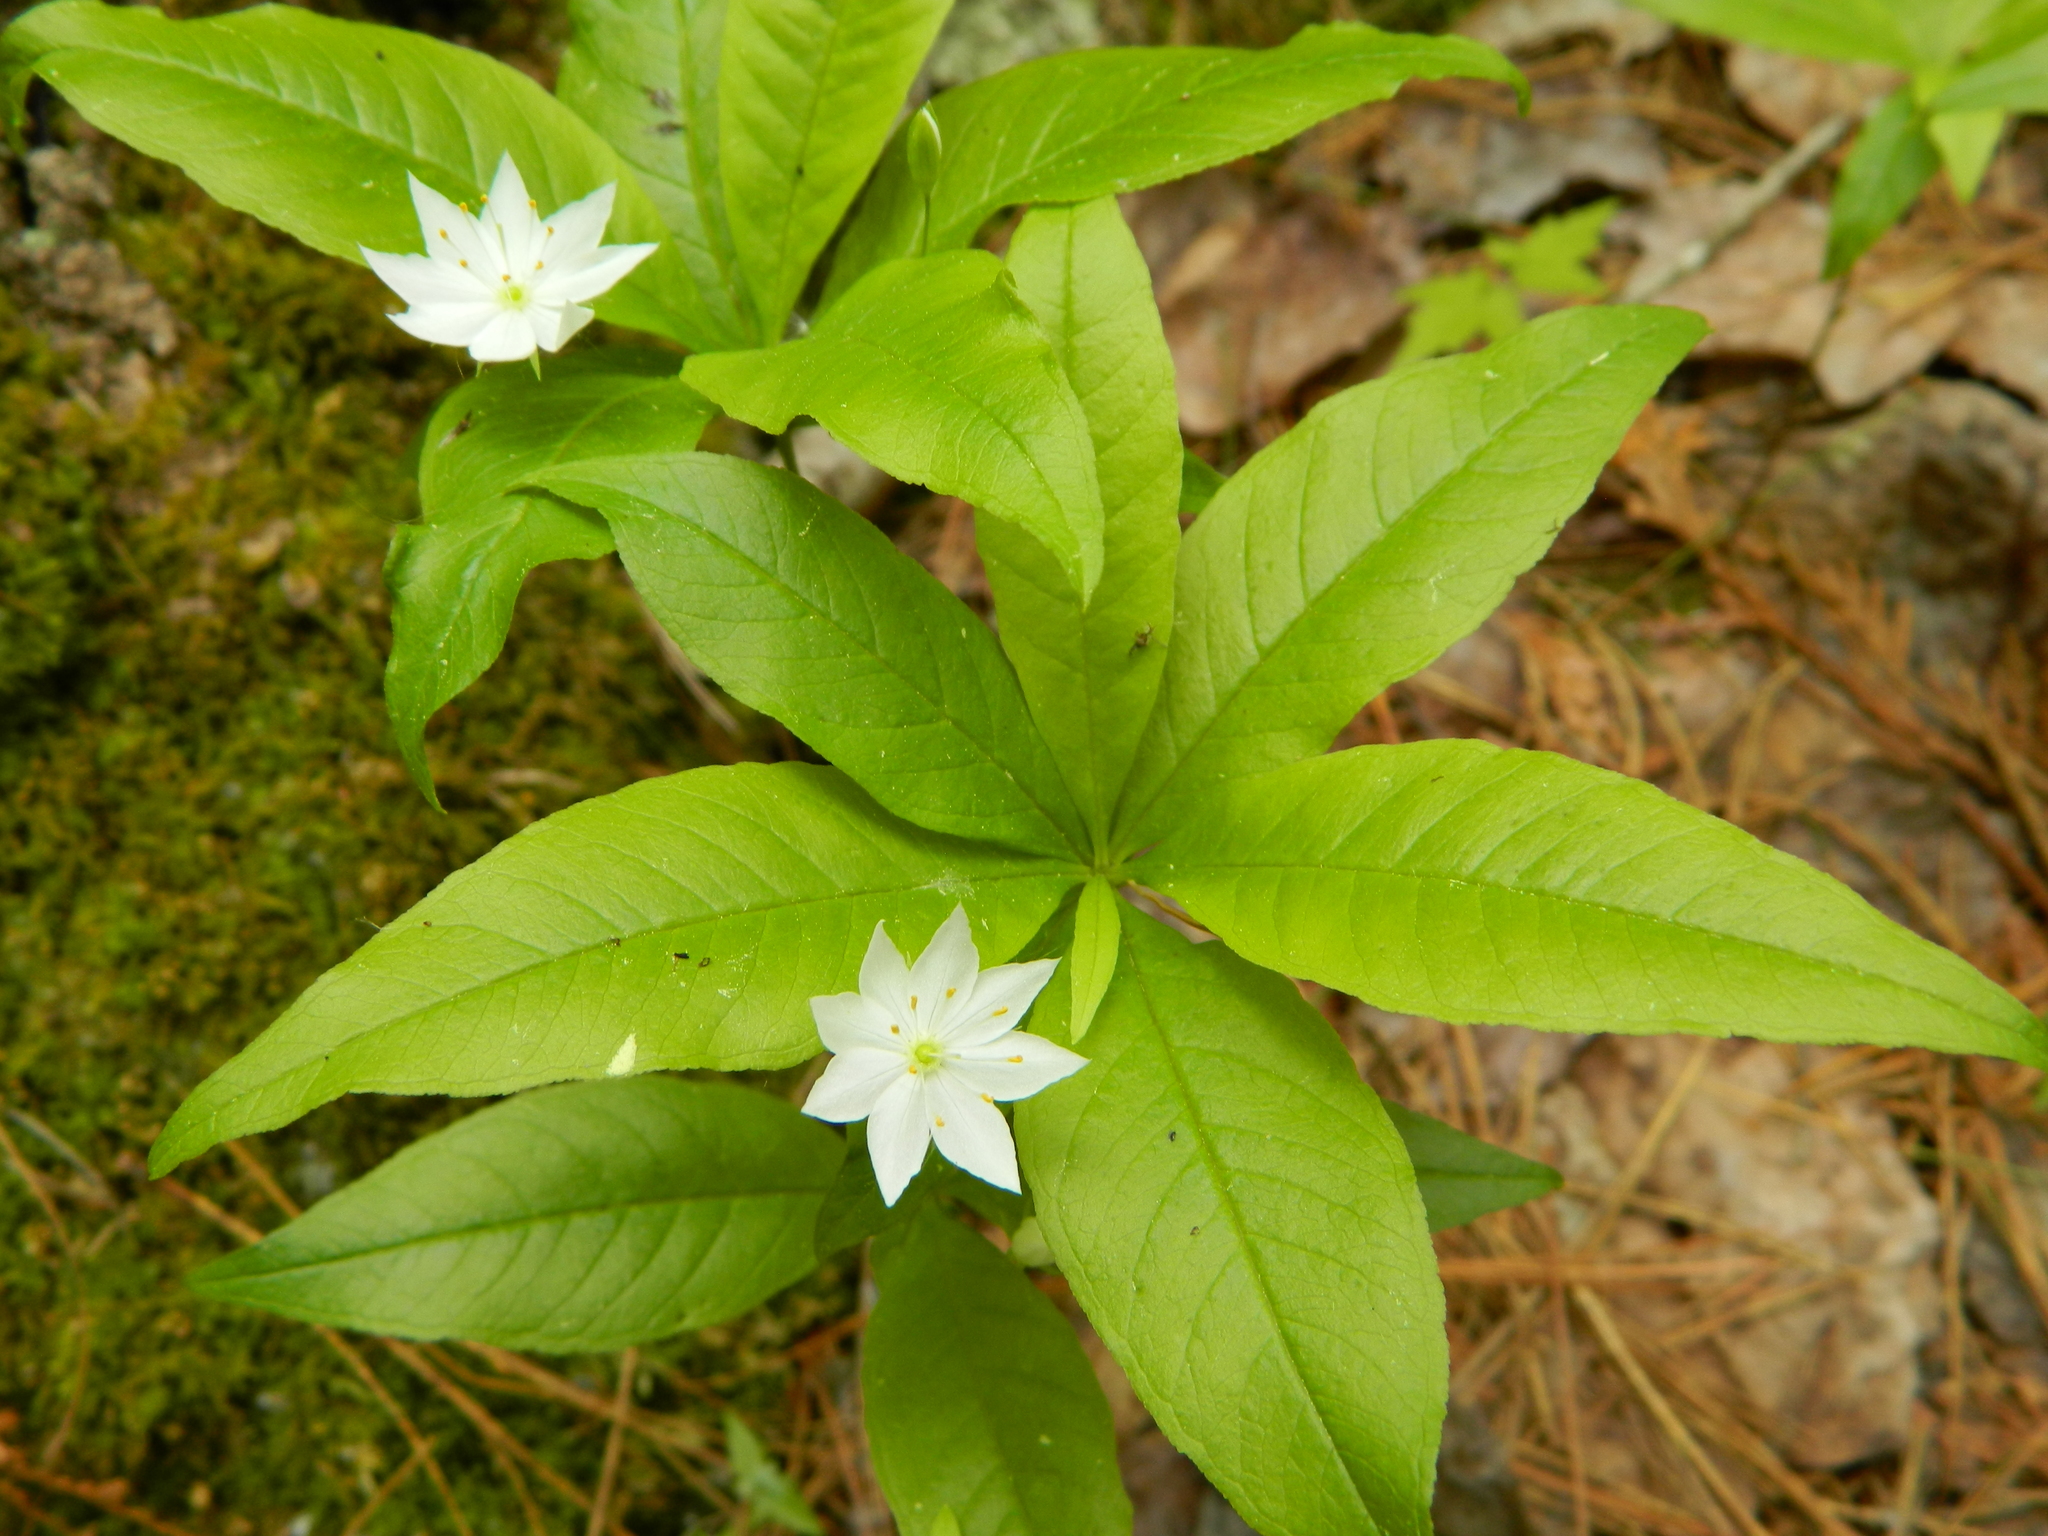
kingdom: Plantae
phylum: Tracheophyta
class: Magnoliopsida
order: Ericales
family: Primulaceae
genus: Lysimachia
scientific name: Lysimachia borealis
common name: American starflower
